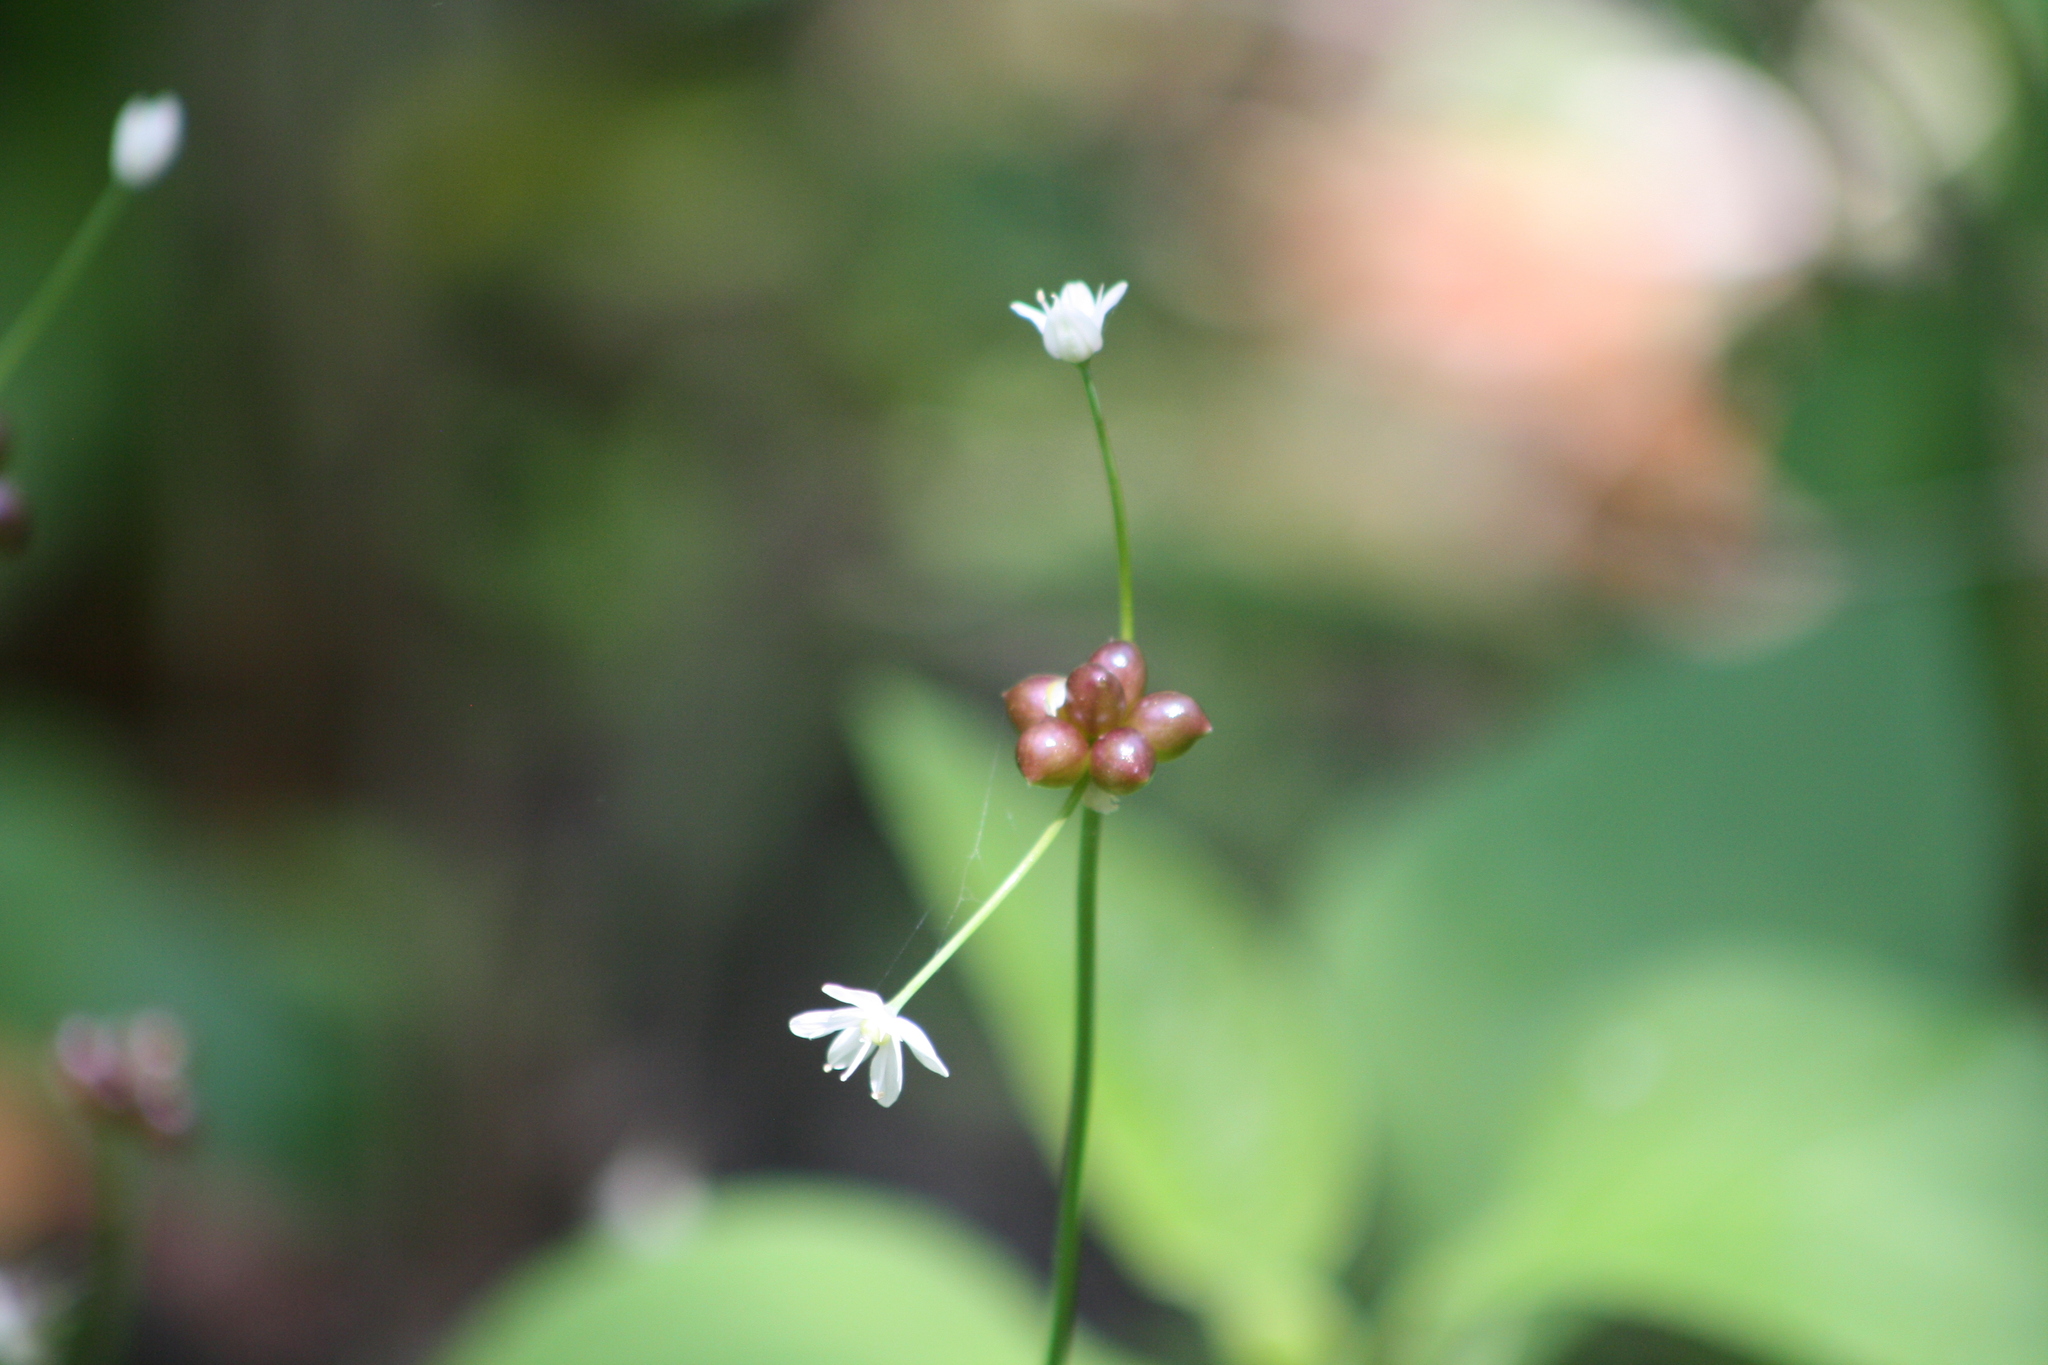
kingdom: Plantae
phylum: Tracheophyta
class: Liliopsida
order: Asparagales
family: Amaryllidaceae
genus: Allium
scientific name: Allium canadense
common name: Meadow garlic
